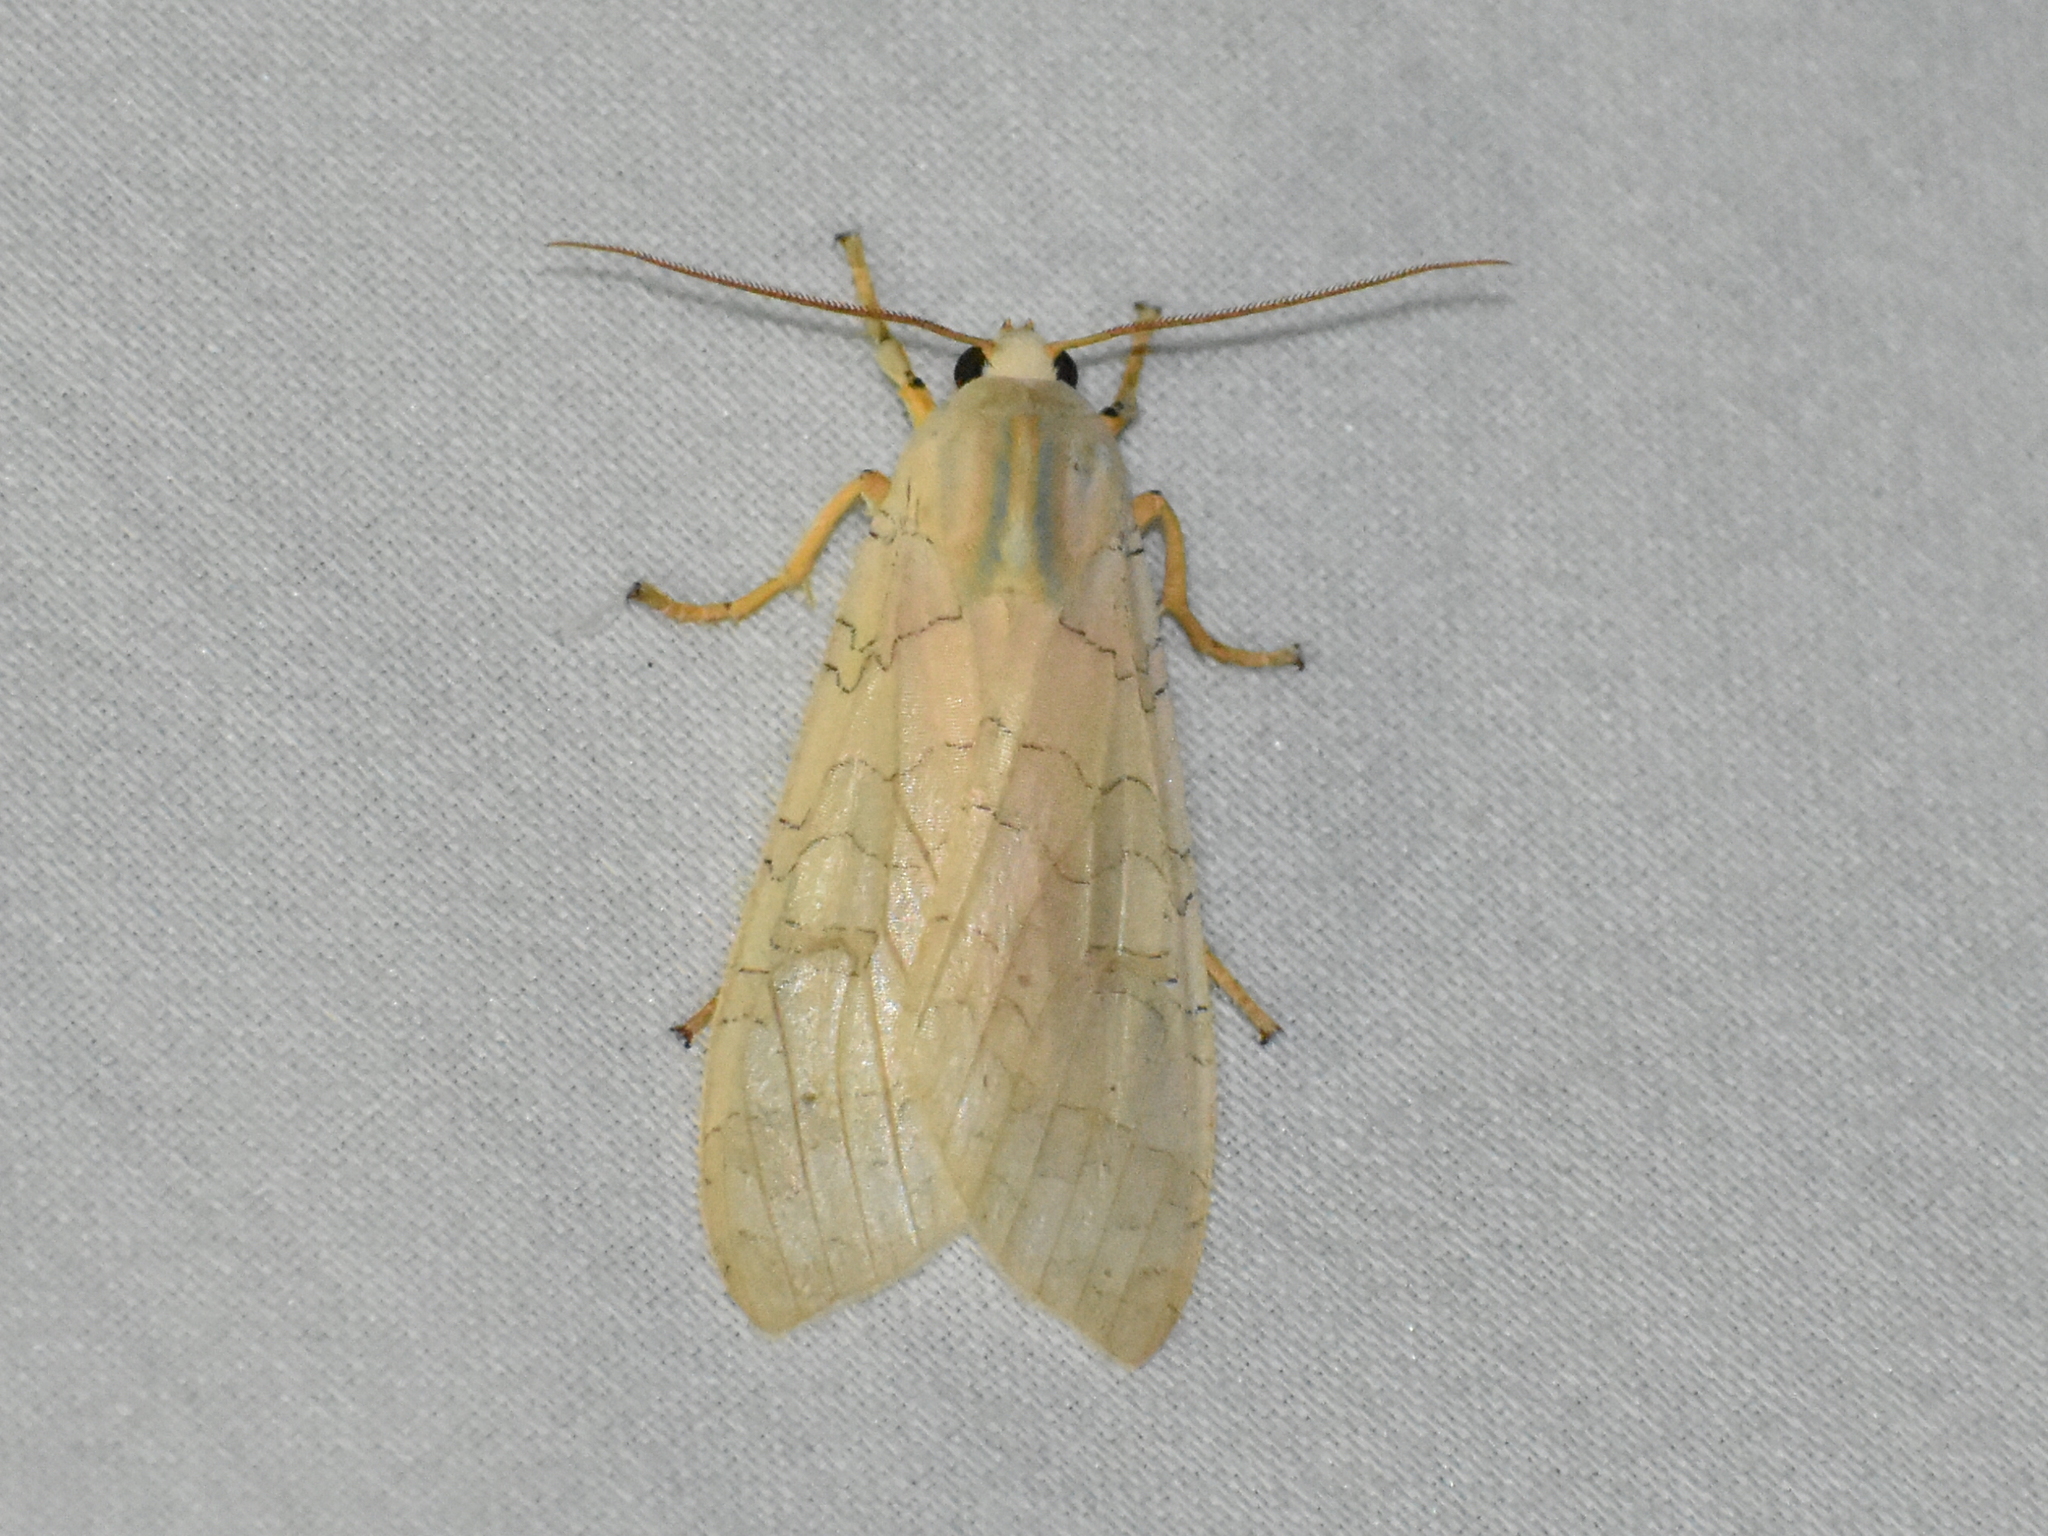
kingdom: Animalia
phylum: Arthropoda
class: Insecta
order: Lepidoptera
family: Erebidae
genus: Halysidota
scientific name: Halysidota
